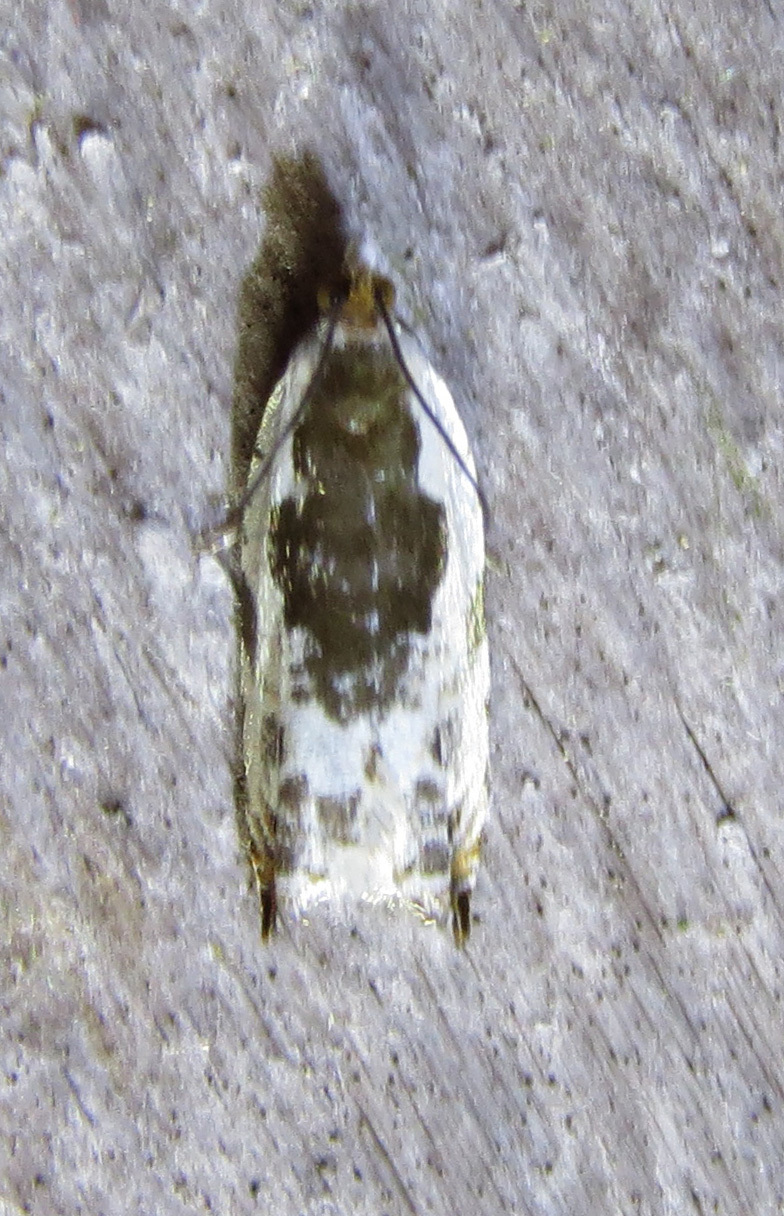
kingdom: Animalia
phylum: Arthropoda
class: Insecta
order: Lepidoptera
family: Tortricidae
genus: Ancylis
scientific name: Ancylis nubeculana
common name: Little cloud ancylis moth
